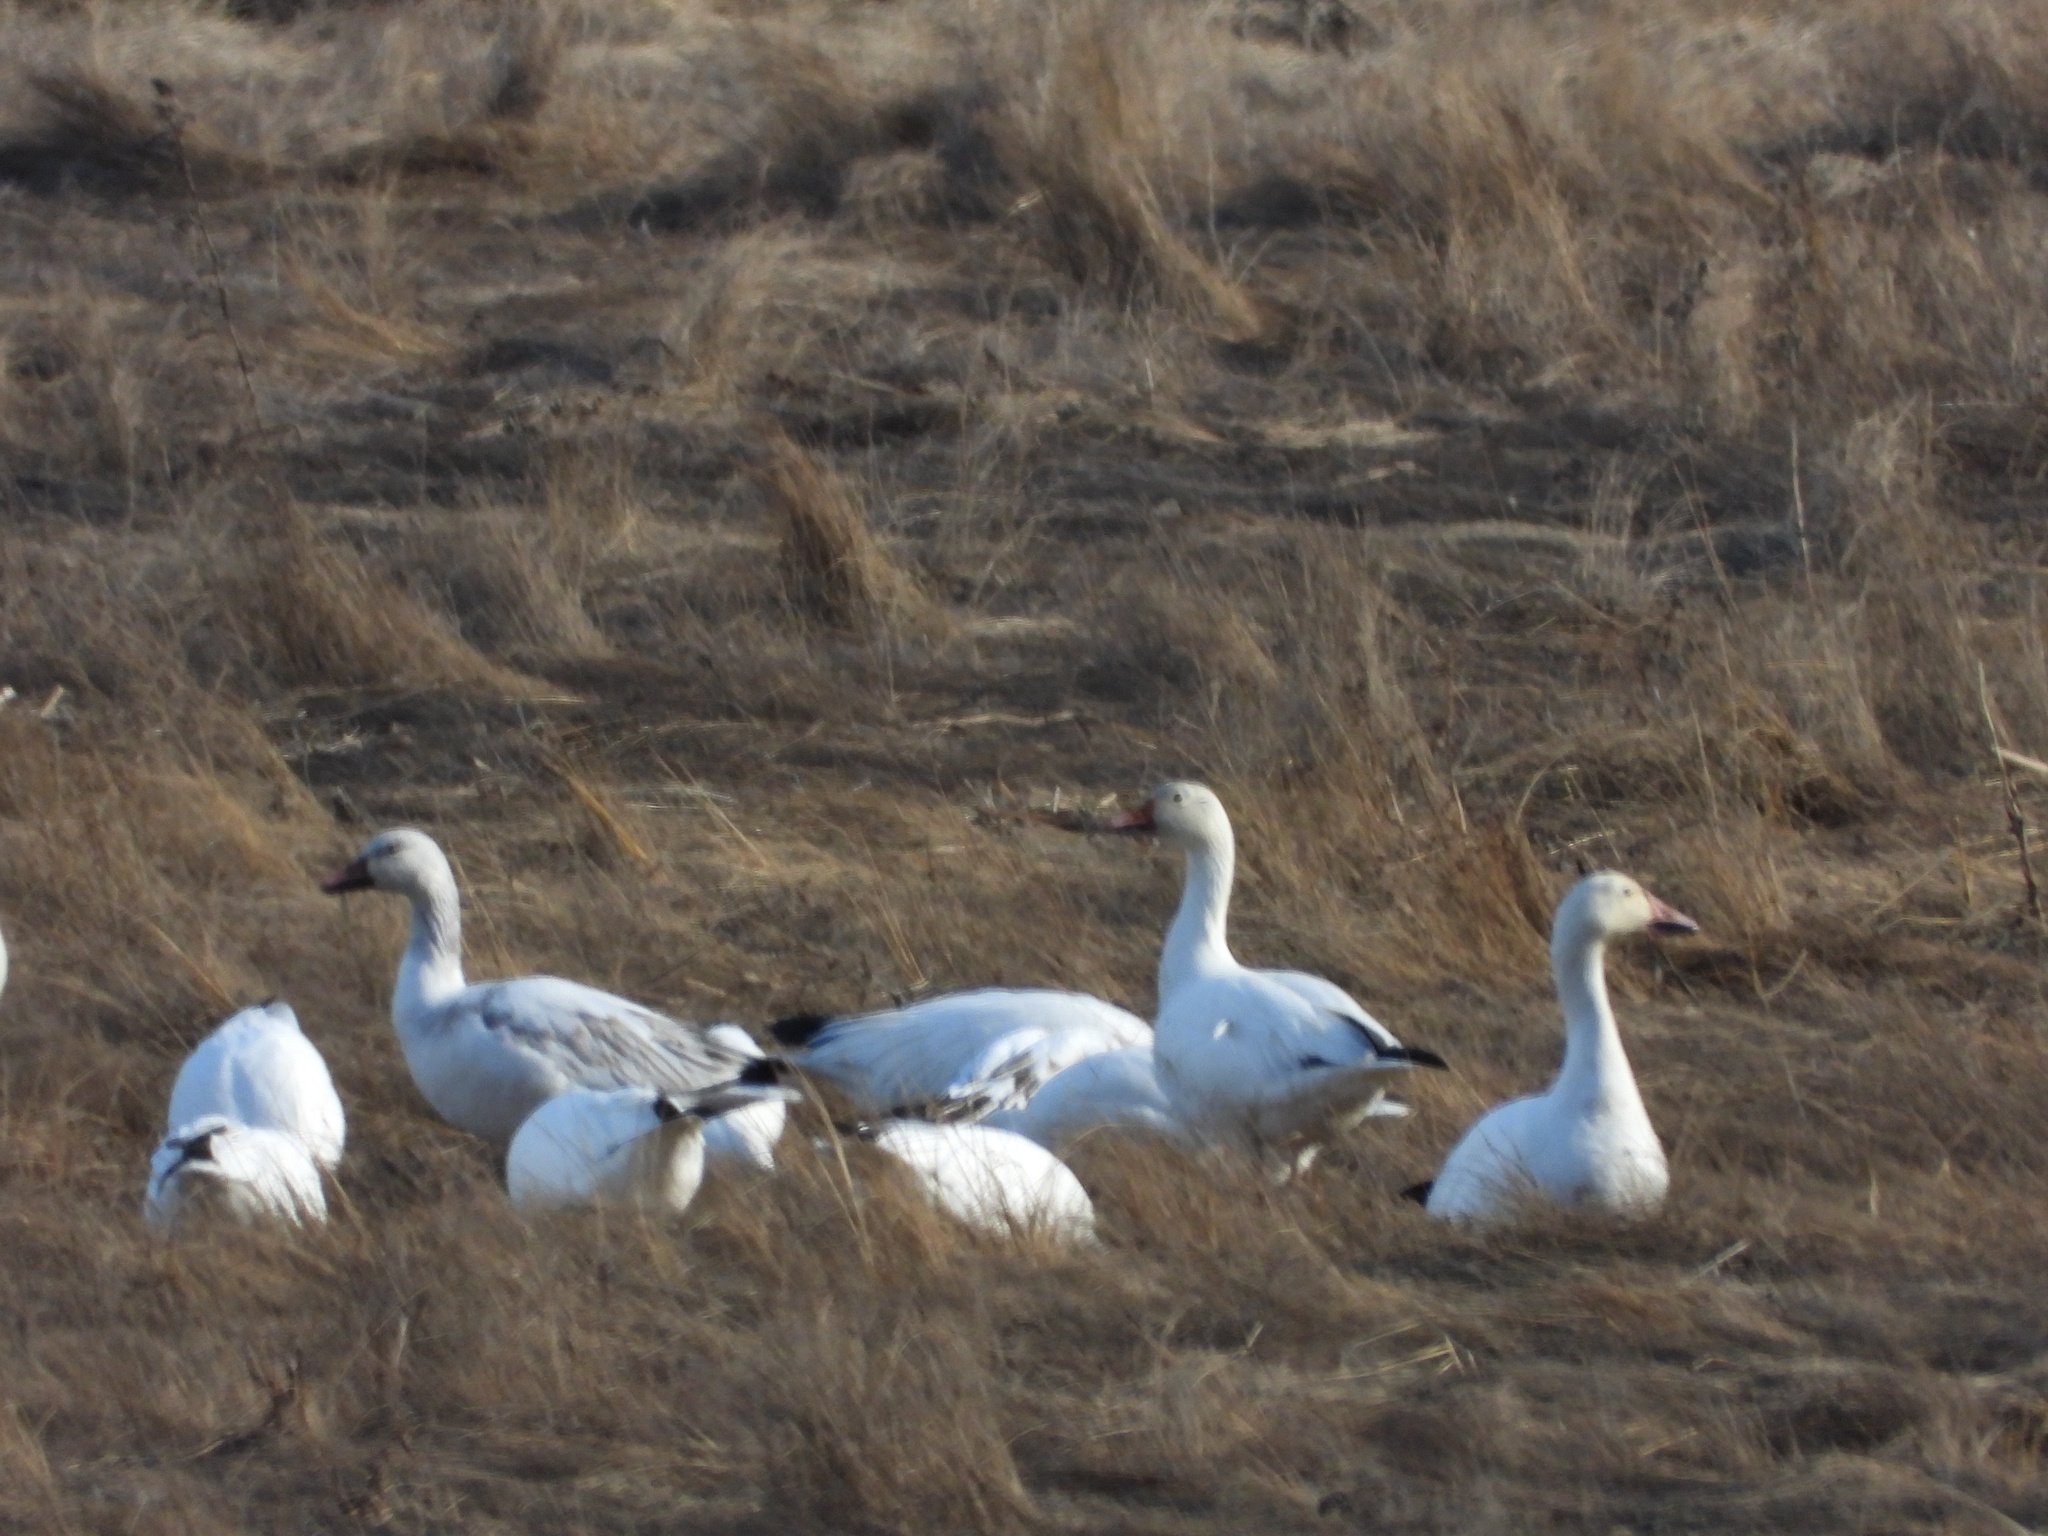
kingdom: Animalia
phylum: Chordata
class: Aves
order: Anseriformes
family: Anatidae
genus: Anser
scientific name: Anser caerulescens
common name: Snow goose
